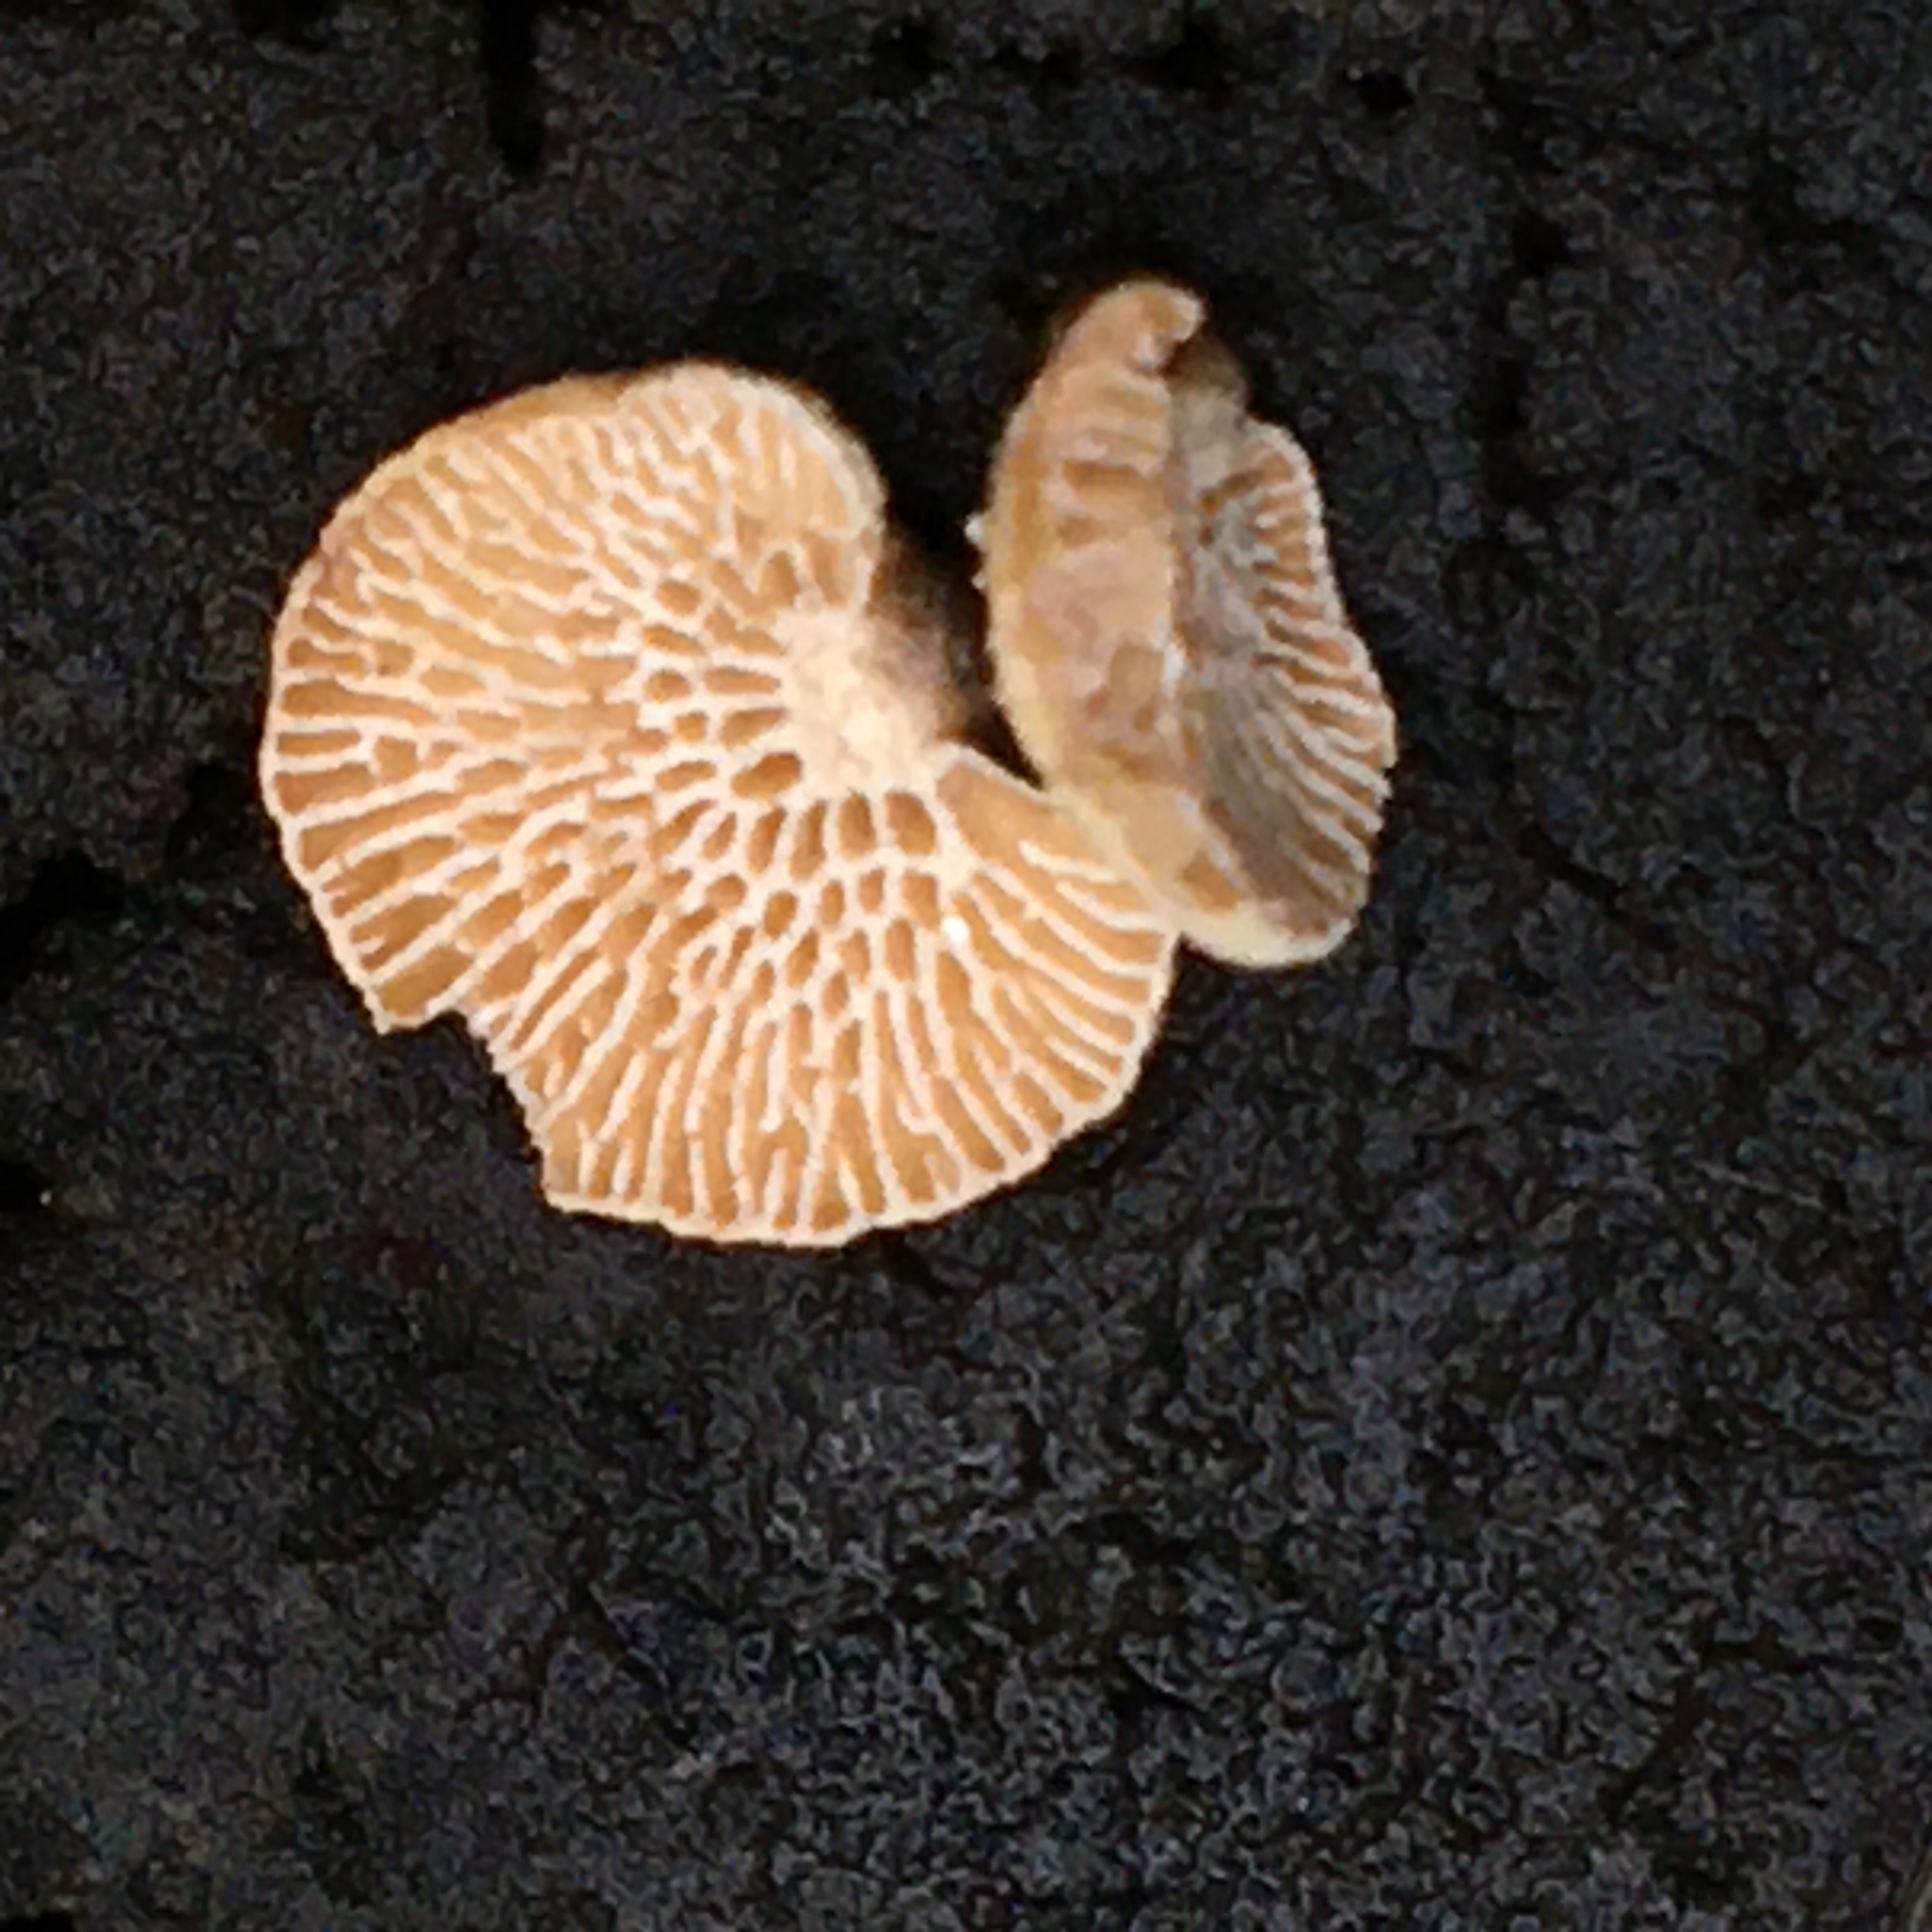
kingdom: Fungi
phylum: Basidiomycota
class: Agaricomycetes
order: Agaricales
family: Mycenaceae
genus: Panellus
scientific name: Panellus pusillus
